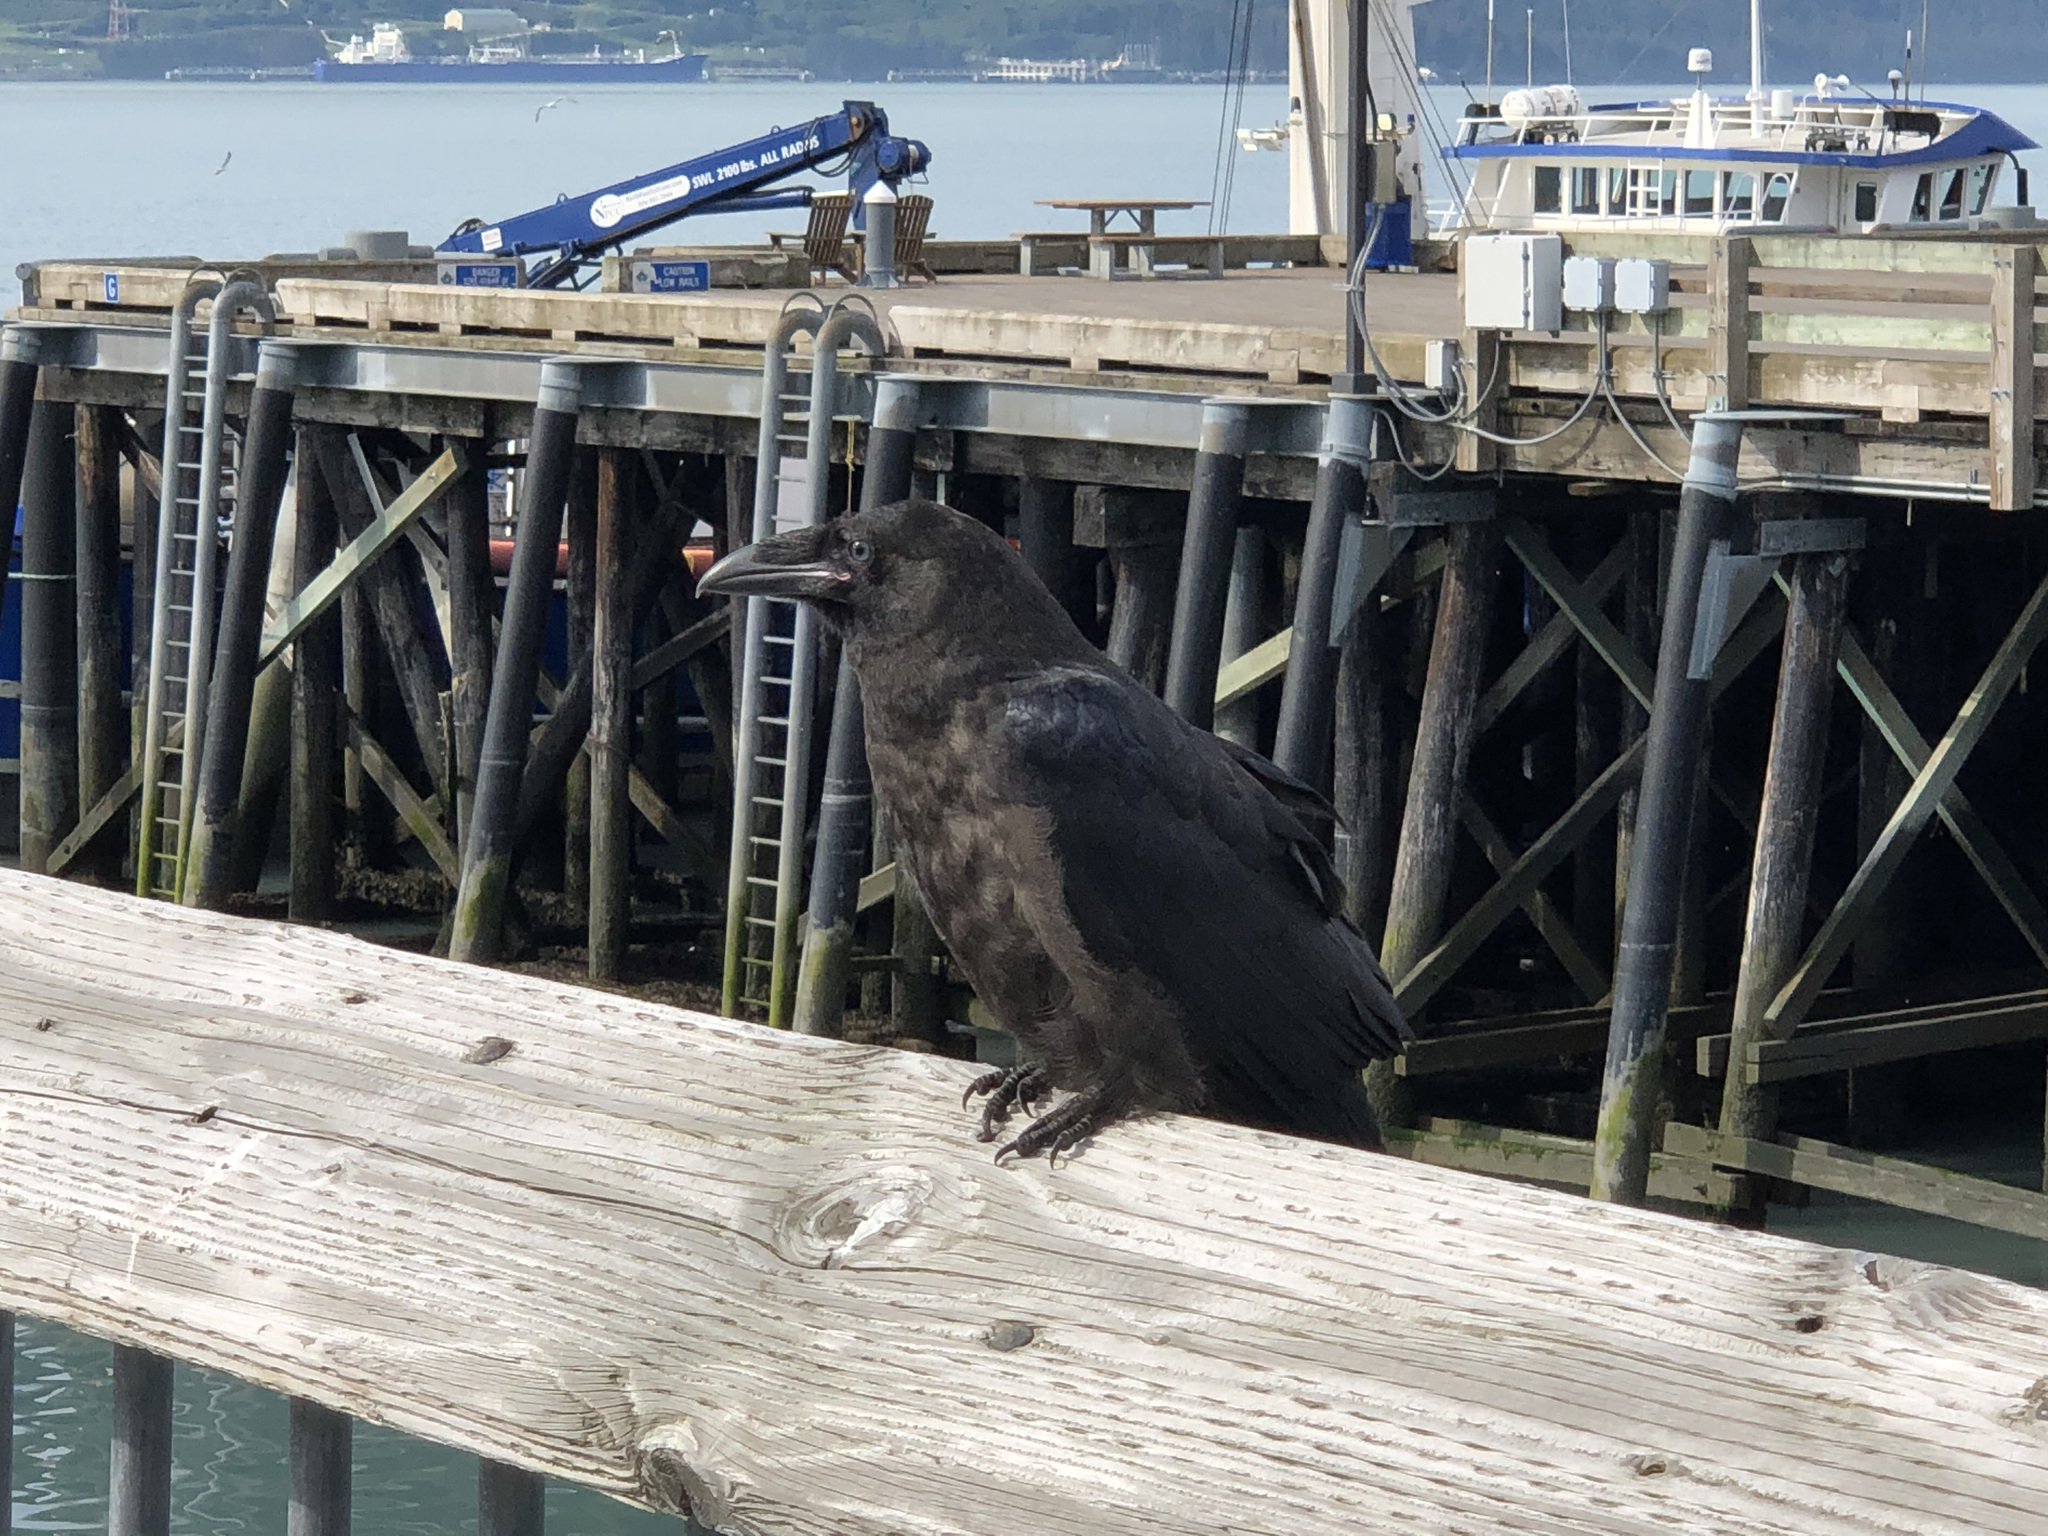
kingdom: Animalia
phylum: Chordata
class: Aves
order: Passeriformes
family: Corvidae
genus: Corvus
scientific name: Corvus corax
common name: Common raven
